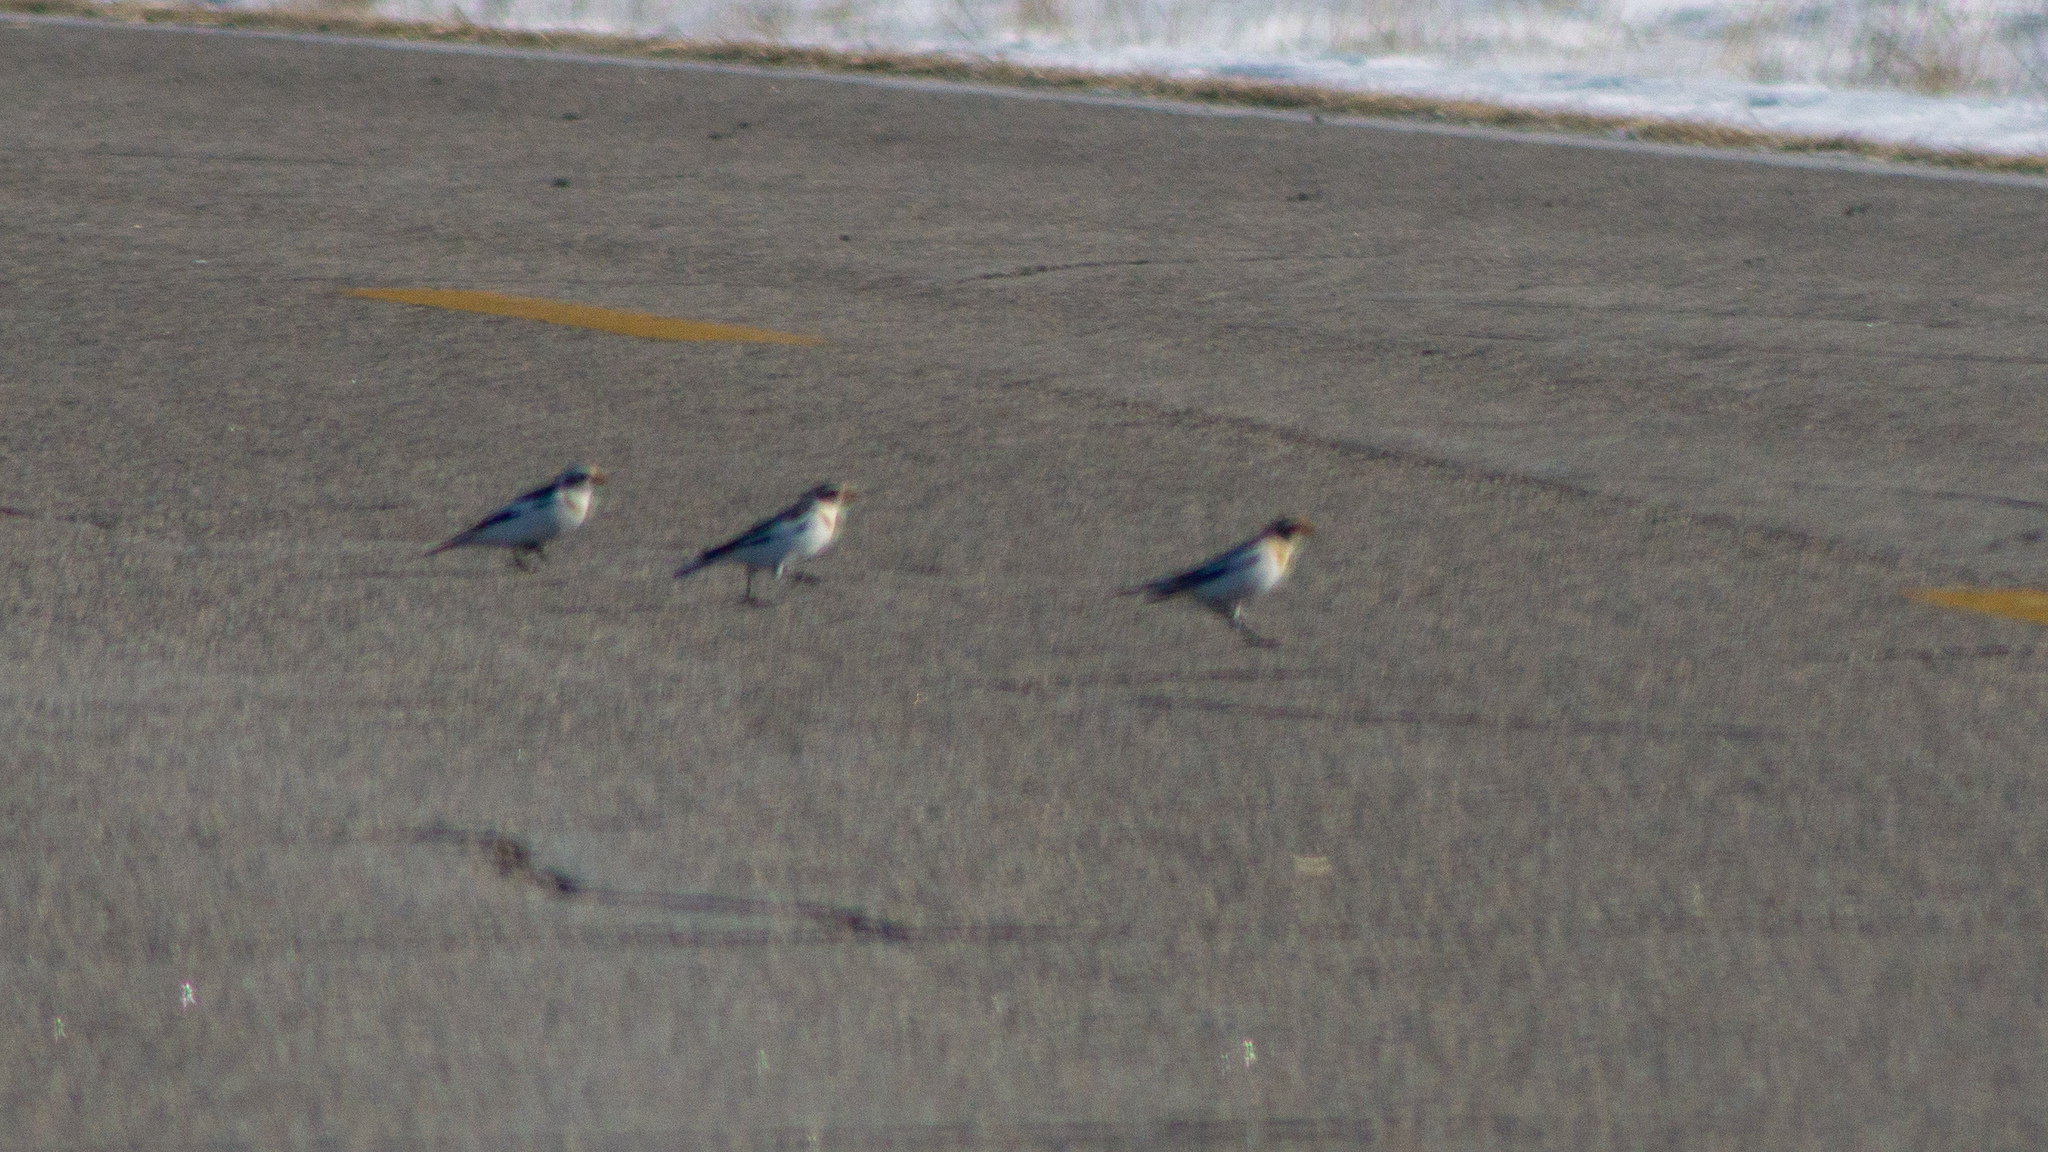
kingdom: Animalia
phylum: Chordata
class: Aves
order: Passeriformes
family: Calcariidae
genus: Plectrophenax
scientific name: Plectrophenax nivalis
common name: Snow bunting
